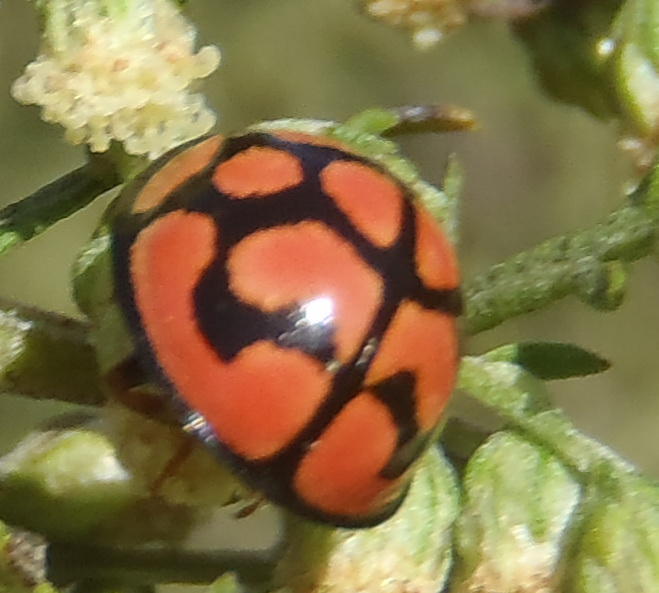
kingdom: Animalia
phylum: Arthropoda
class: Insecta
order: Coleoptera
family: Coccinellidae
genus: Cheilomenes
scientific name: Cheilomenes lunata
